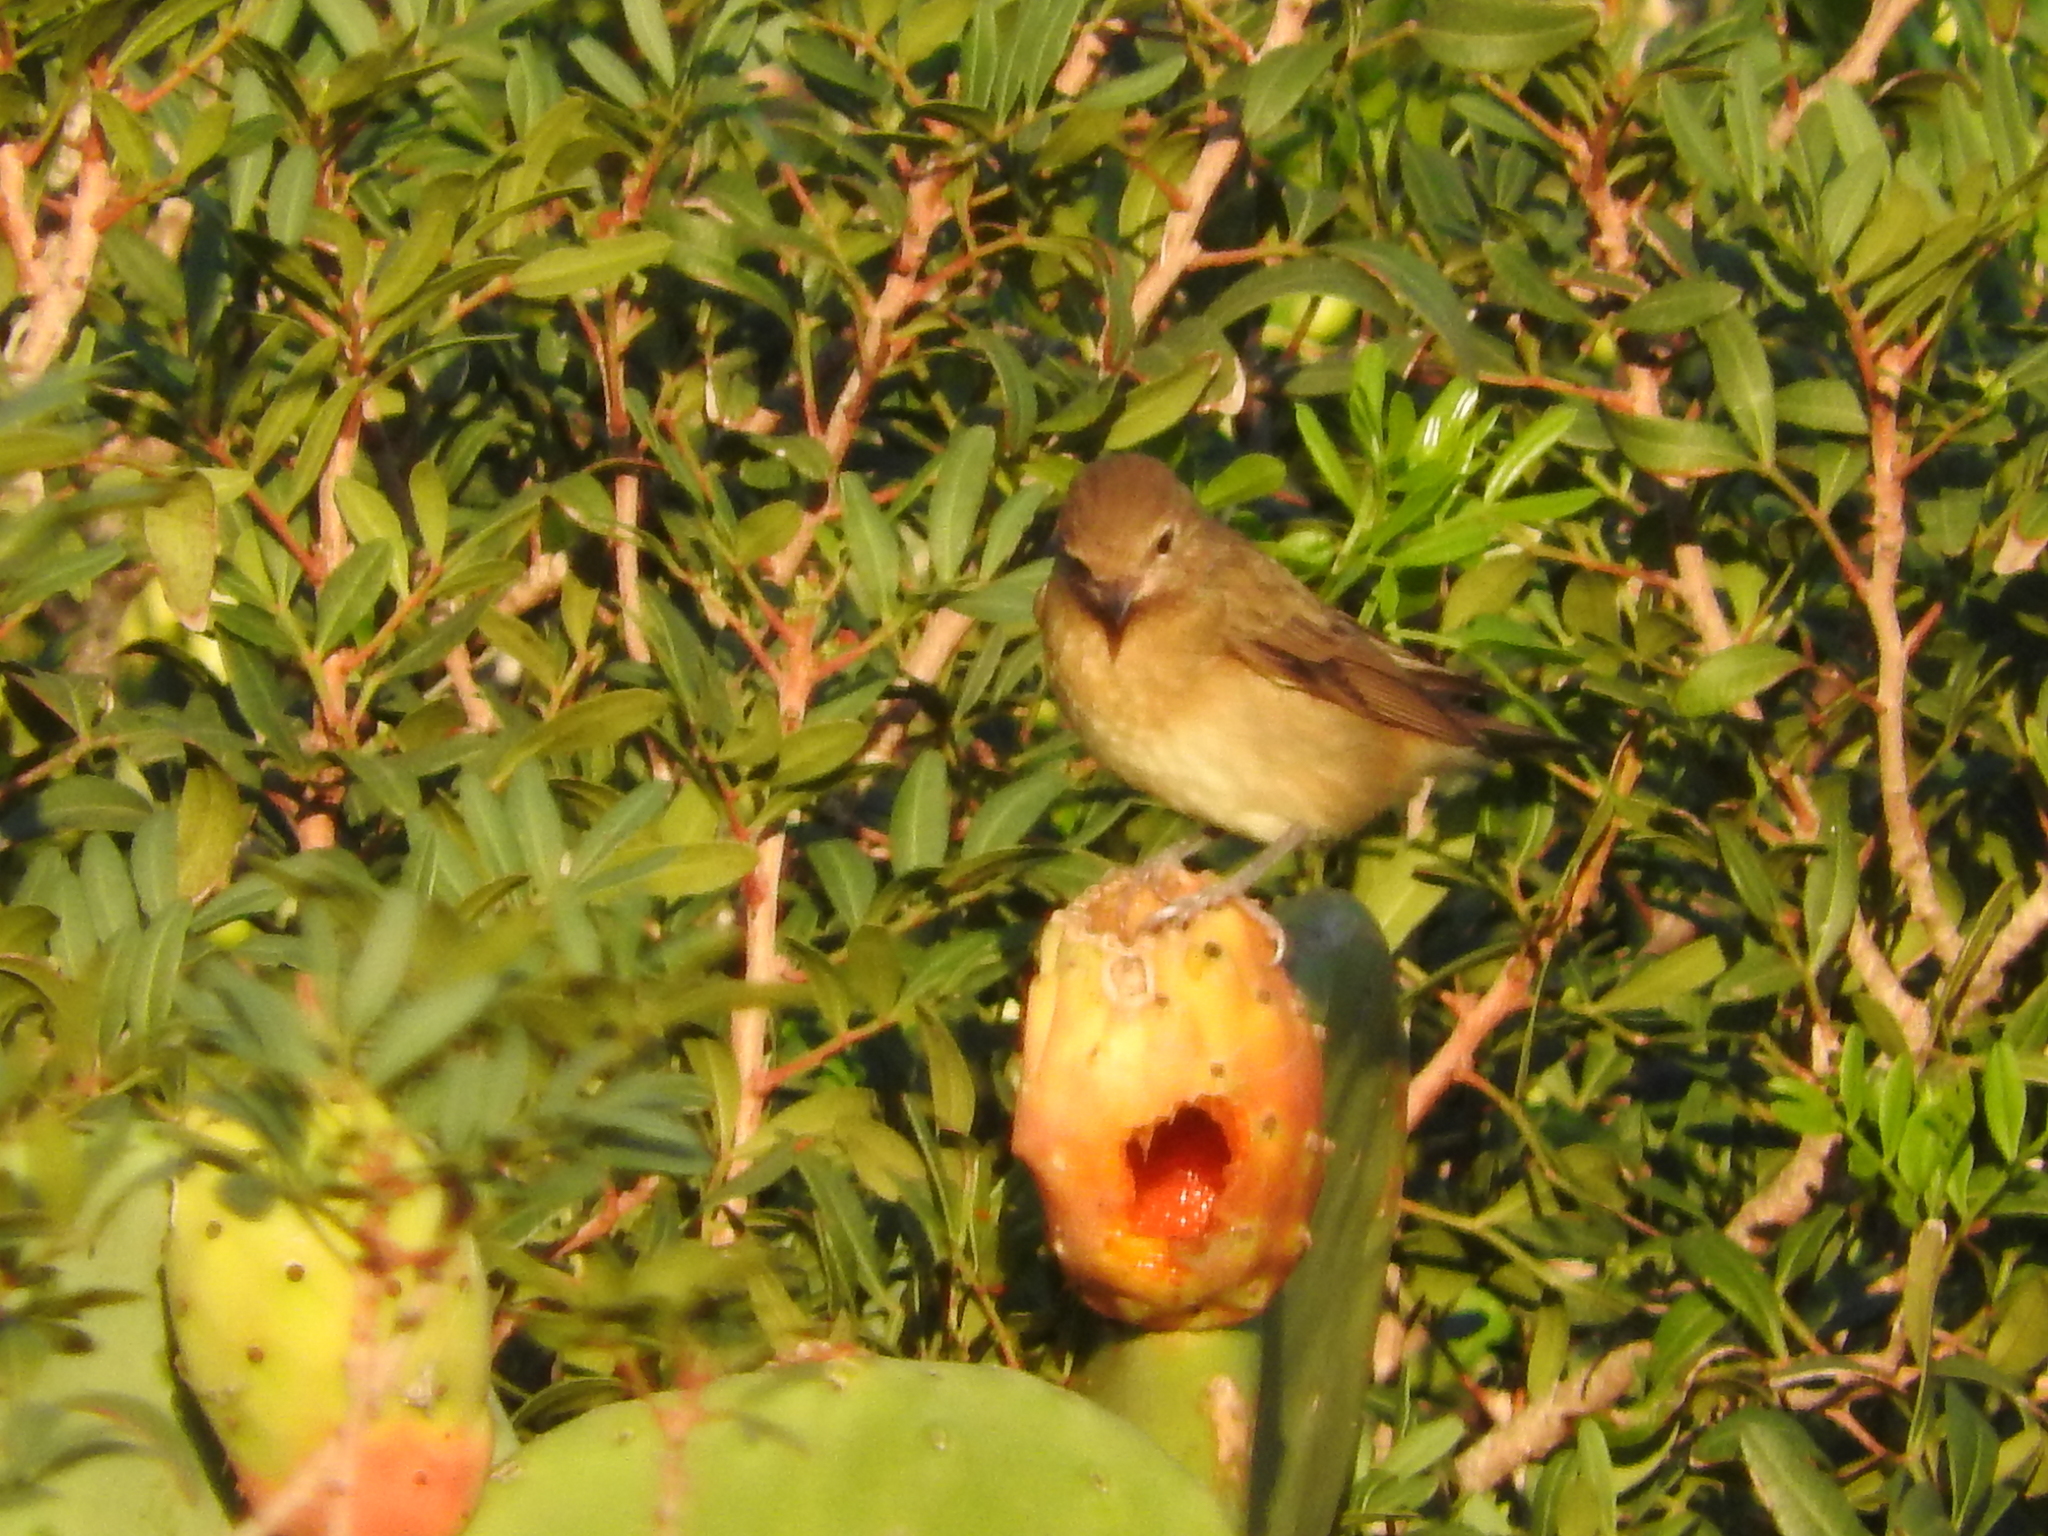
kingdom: Animalia
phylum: Chordata
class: Aves
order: Passeriformes
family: Sylviidae
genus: Sylvia
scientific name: Sylvia borin
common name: Garden warbler
